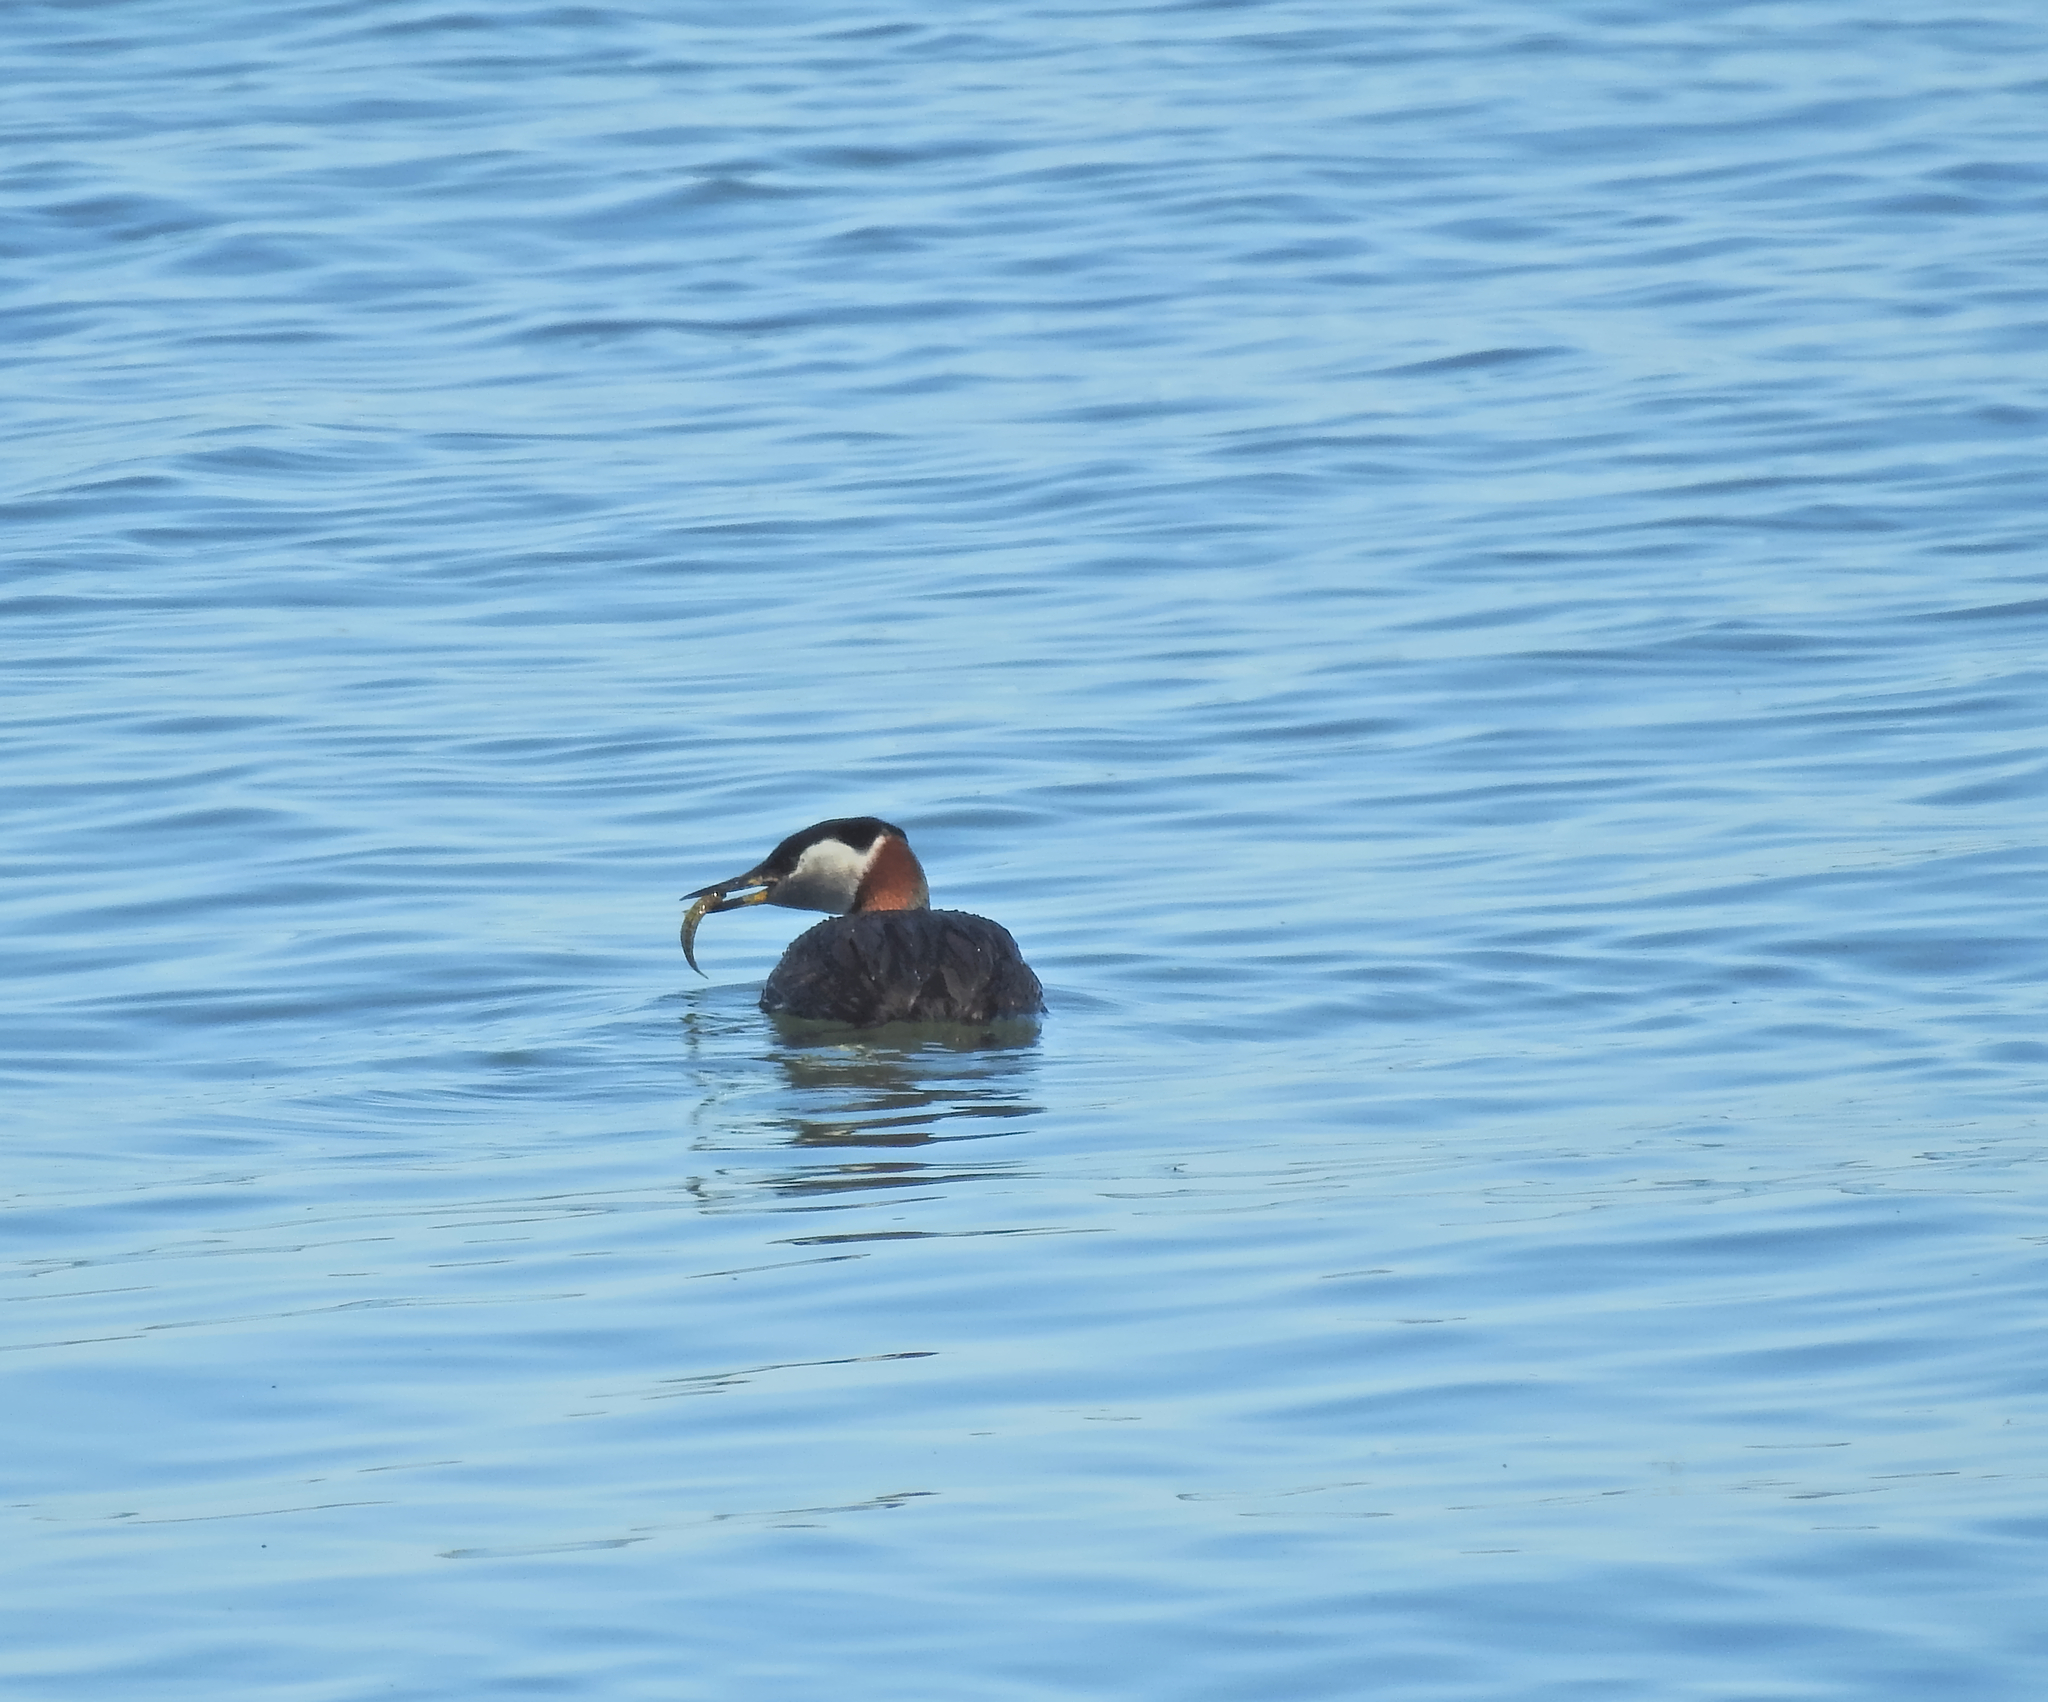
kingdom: Animalia
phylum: Chordata
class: Aves
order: Podicipediformes
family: Podicipedidae
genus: Podiceps
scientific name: Podiceps grisegena
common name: Red-necked grebe
